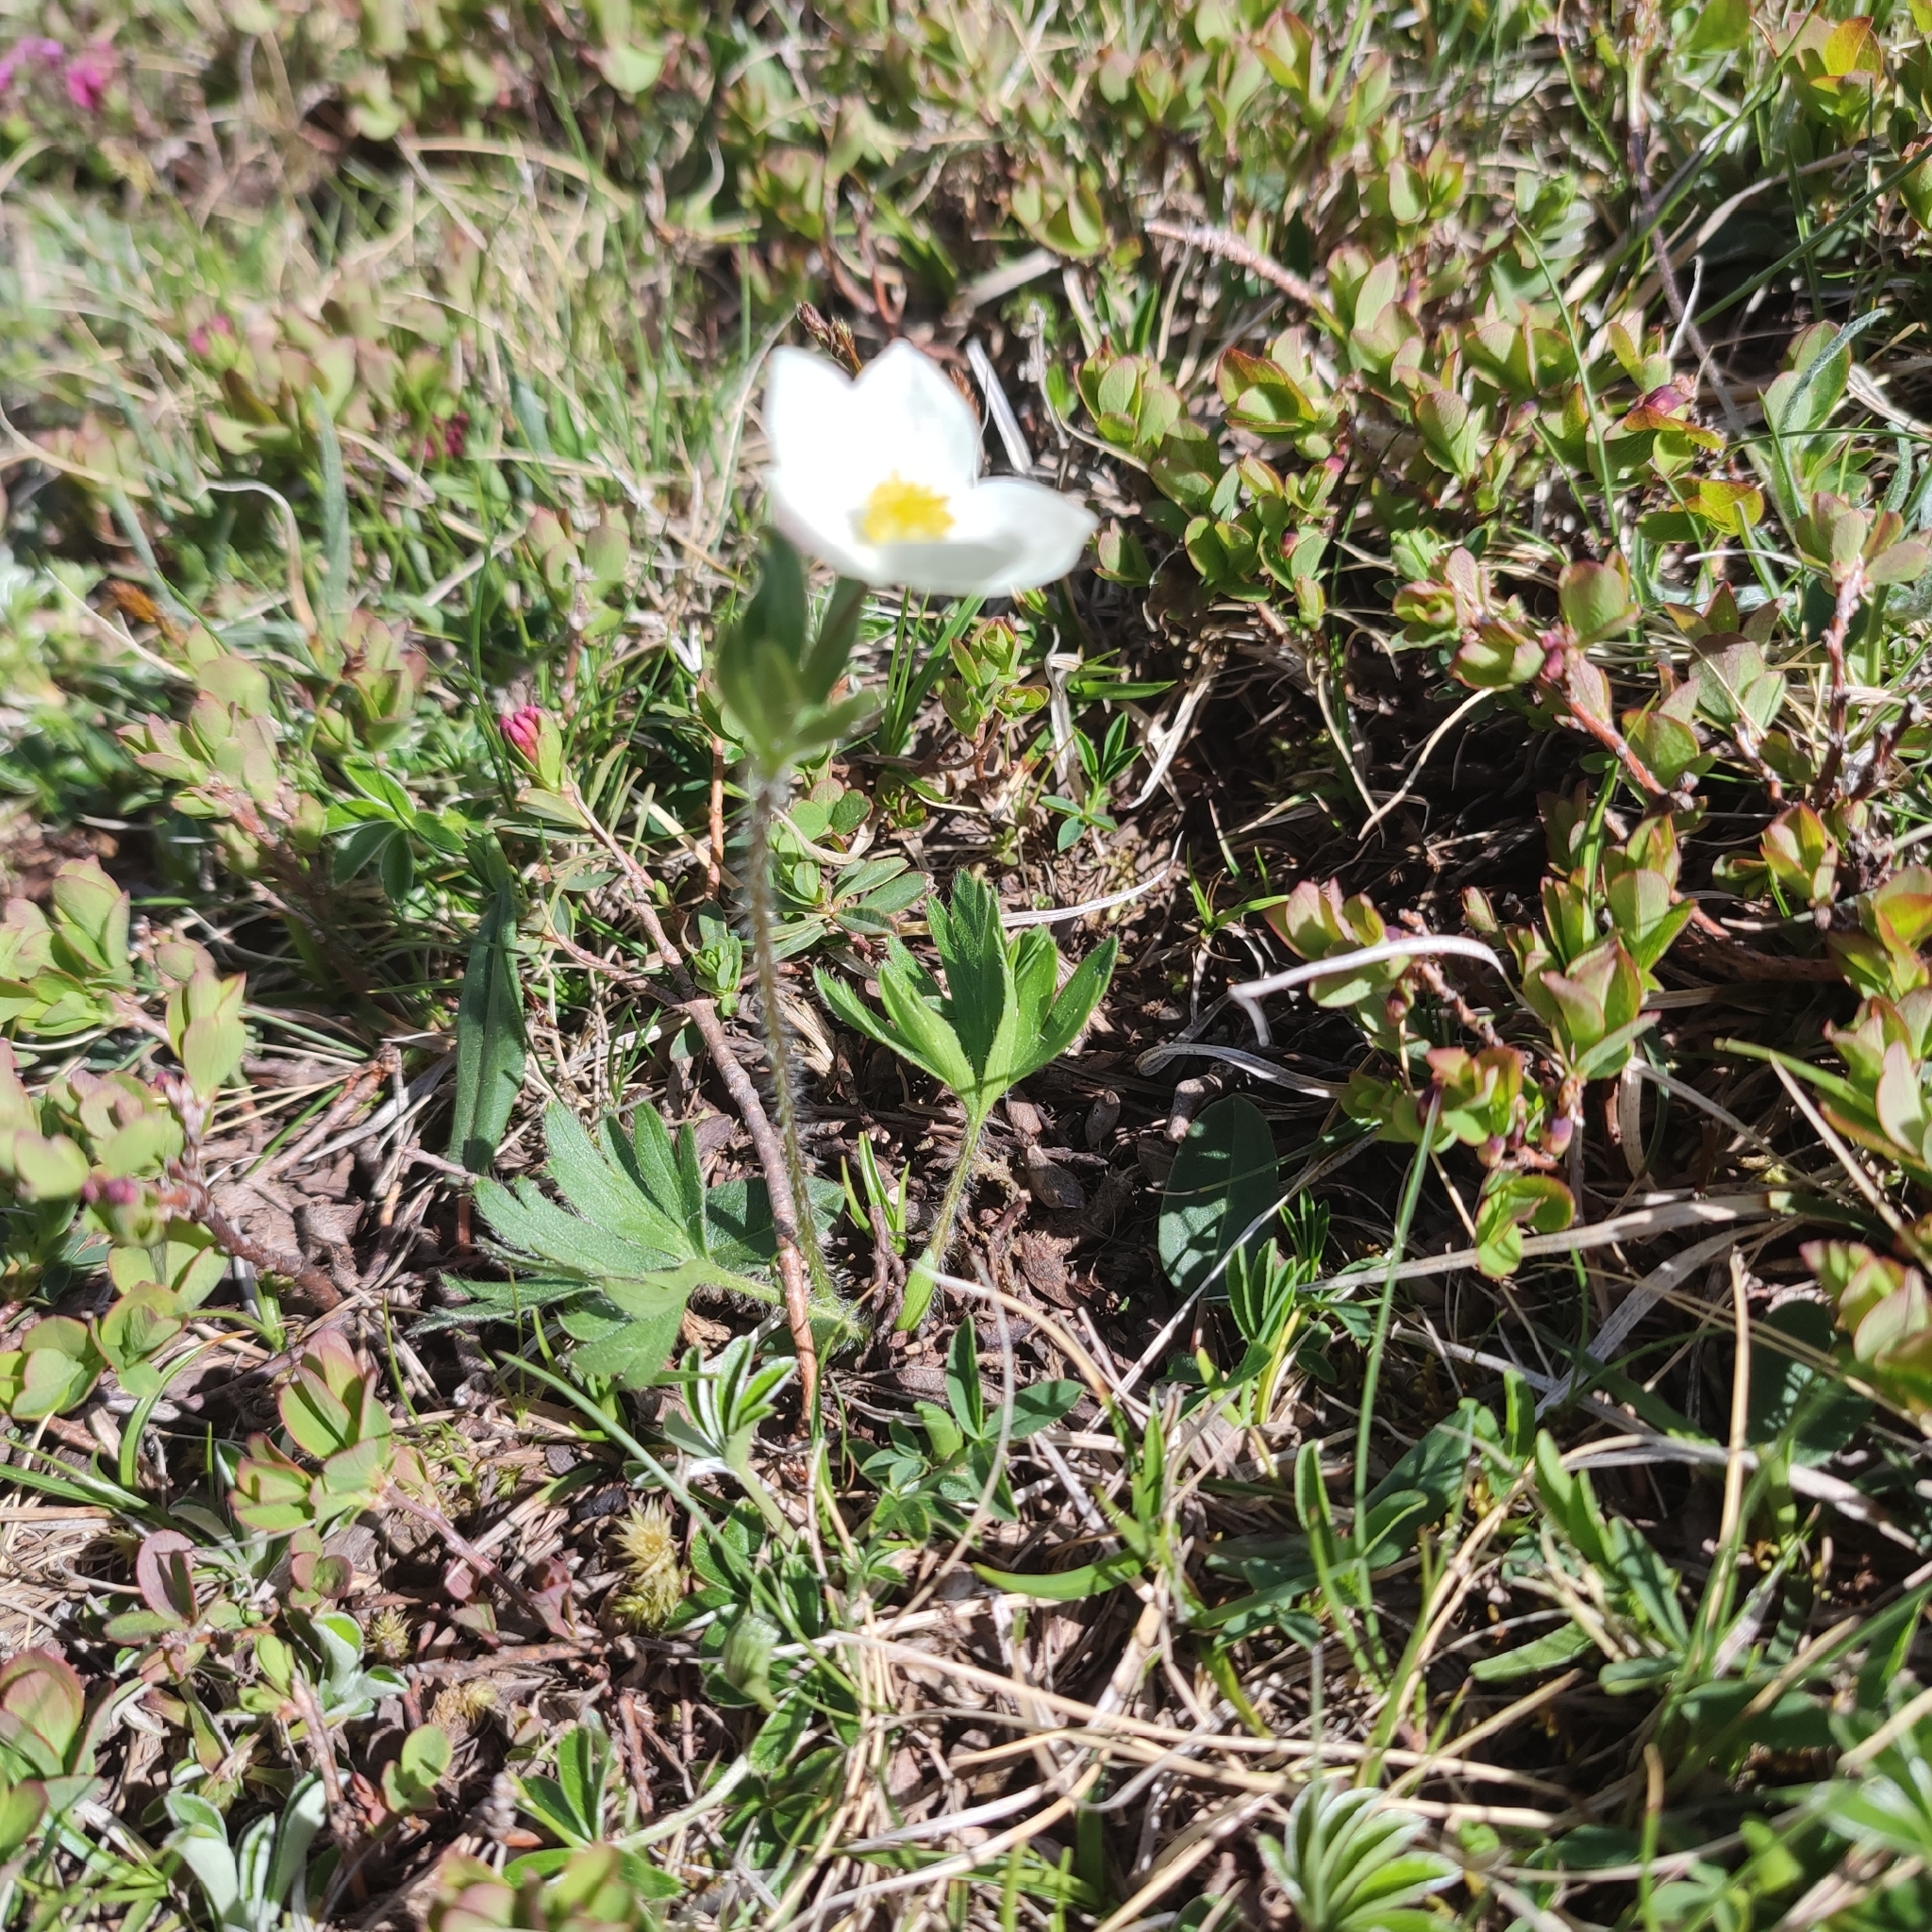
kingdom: Plantae
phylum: Tracheophyta
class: Magnoliopsida
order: Ranunculales
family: Ranunculaceae
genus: Anemonastrum
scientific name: Anemonastrum narcissiflorum
